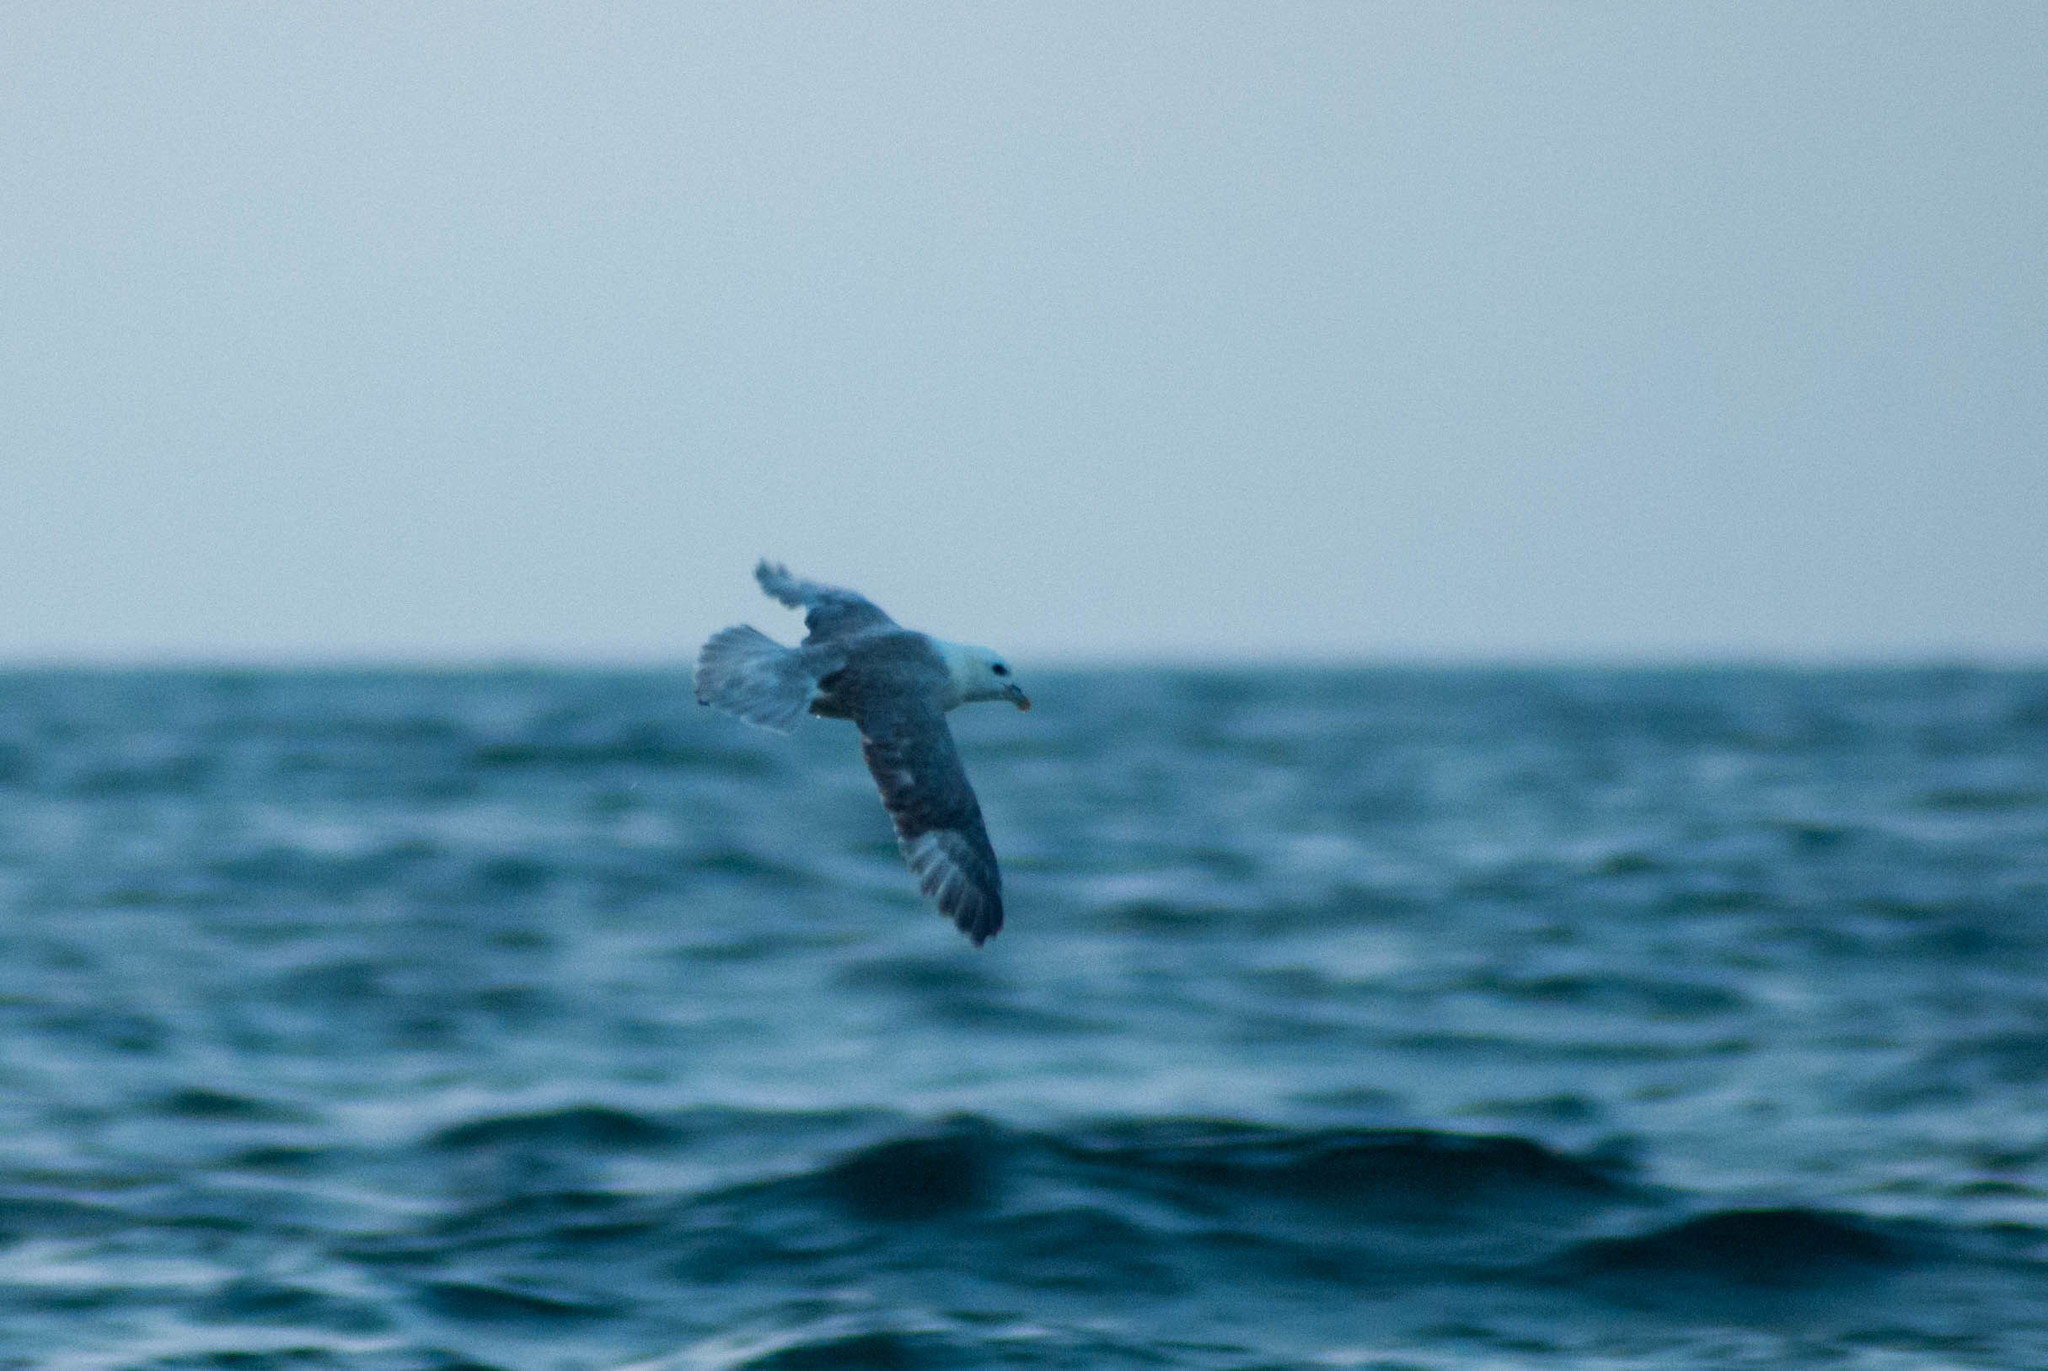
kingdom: Animalia
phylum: Chordata
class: Aves
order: Procellariiformes
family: Procellariidae
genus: Fulmarus
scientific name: Fulmarus glacialis
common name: Northern fulmar
